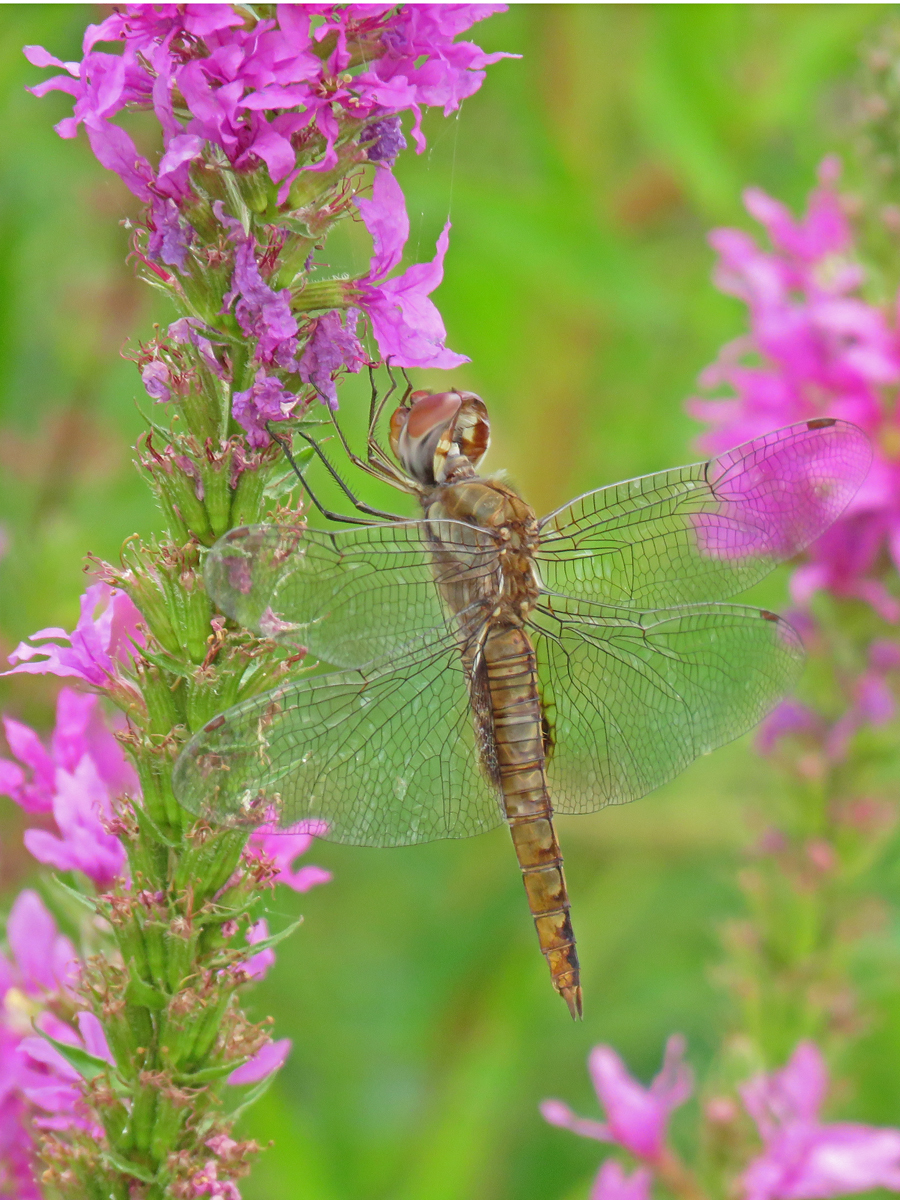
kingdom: Animalia
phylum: Arthropoda
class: Insecta
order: Odonata
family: Libellulidae
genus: Pantala
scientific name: Pantala hymenaea
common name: Spot-winged glider
